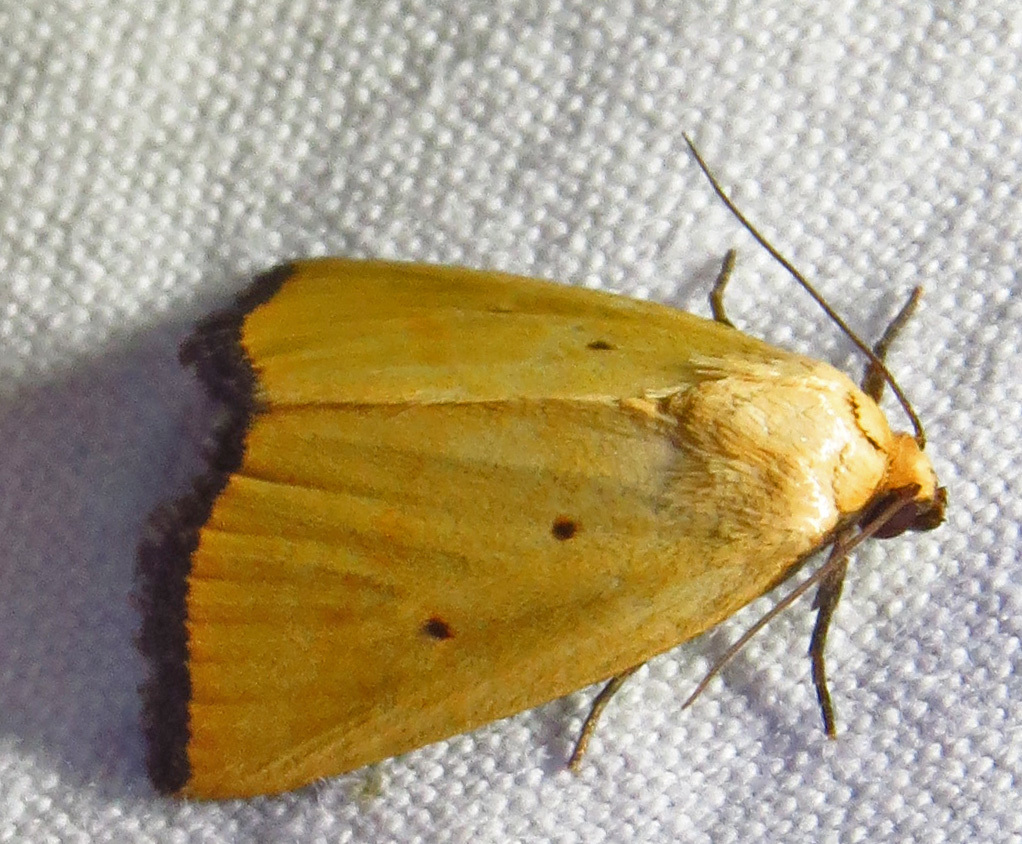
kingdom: Animalia
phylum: Arthropoda
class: Insecta
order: Lepidoptera
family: Noctuidae
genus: Marimatha
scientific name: Marimatha nigrofimbria
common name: Black-bordered lemon moth
